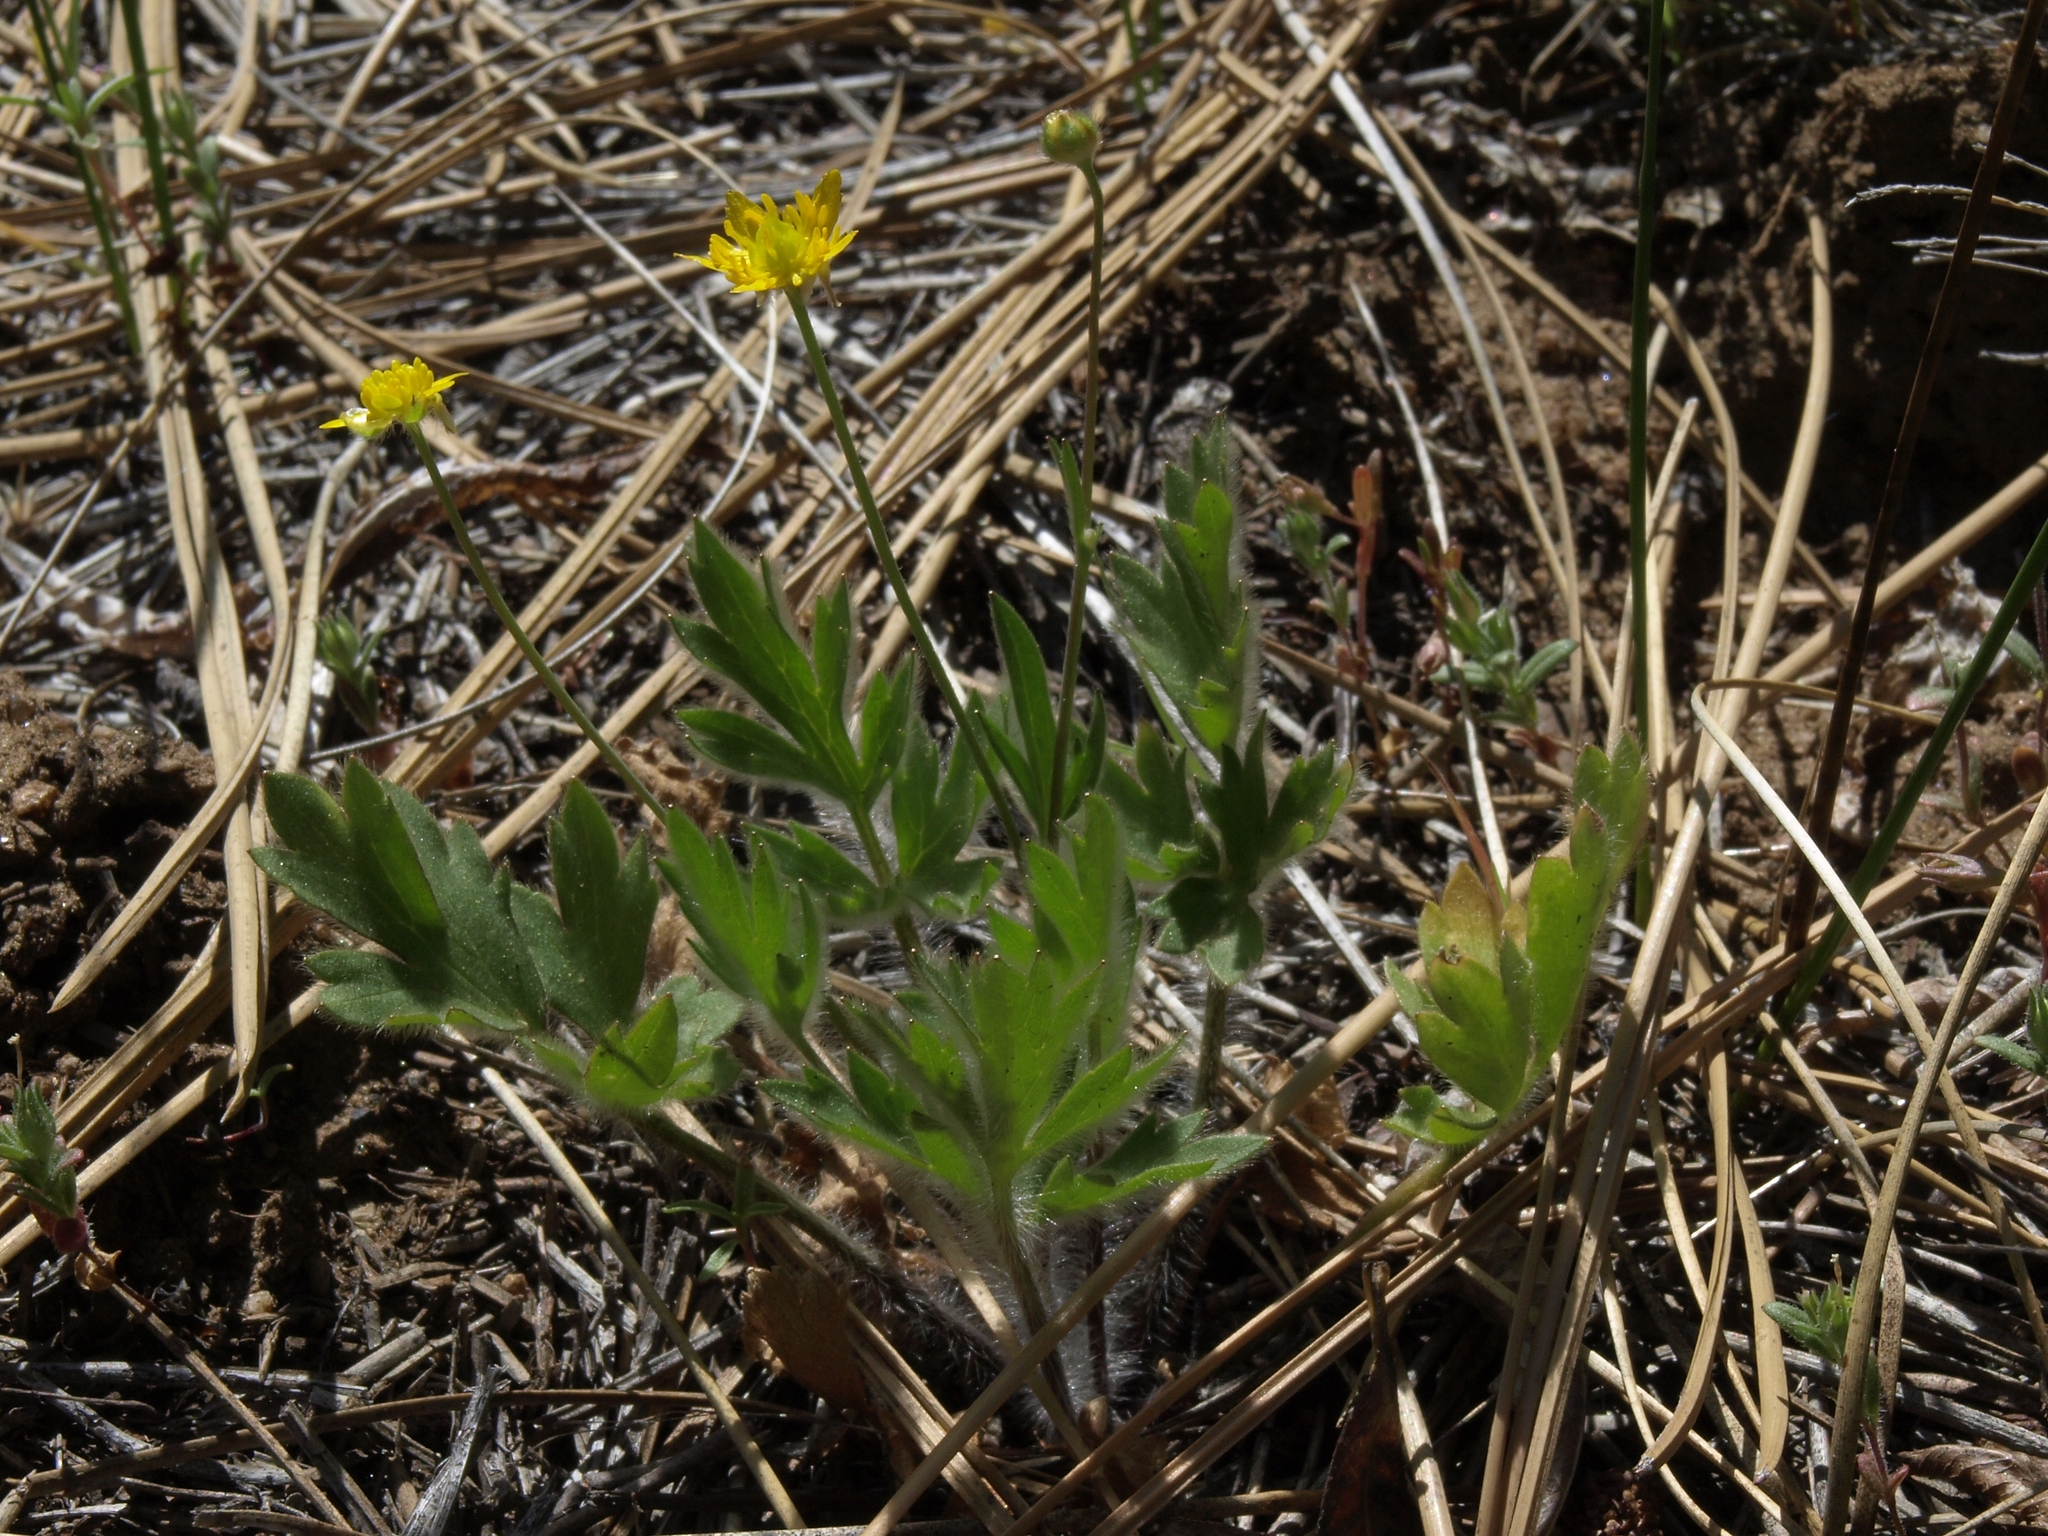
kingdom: Plantae
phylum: Tracheophyta
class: Magnoliopsida
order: Ranunculales
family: Ranunculaceae
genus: Ranunculus
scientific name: Ranunculus occidentalis
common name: Western buttercup
